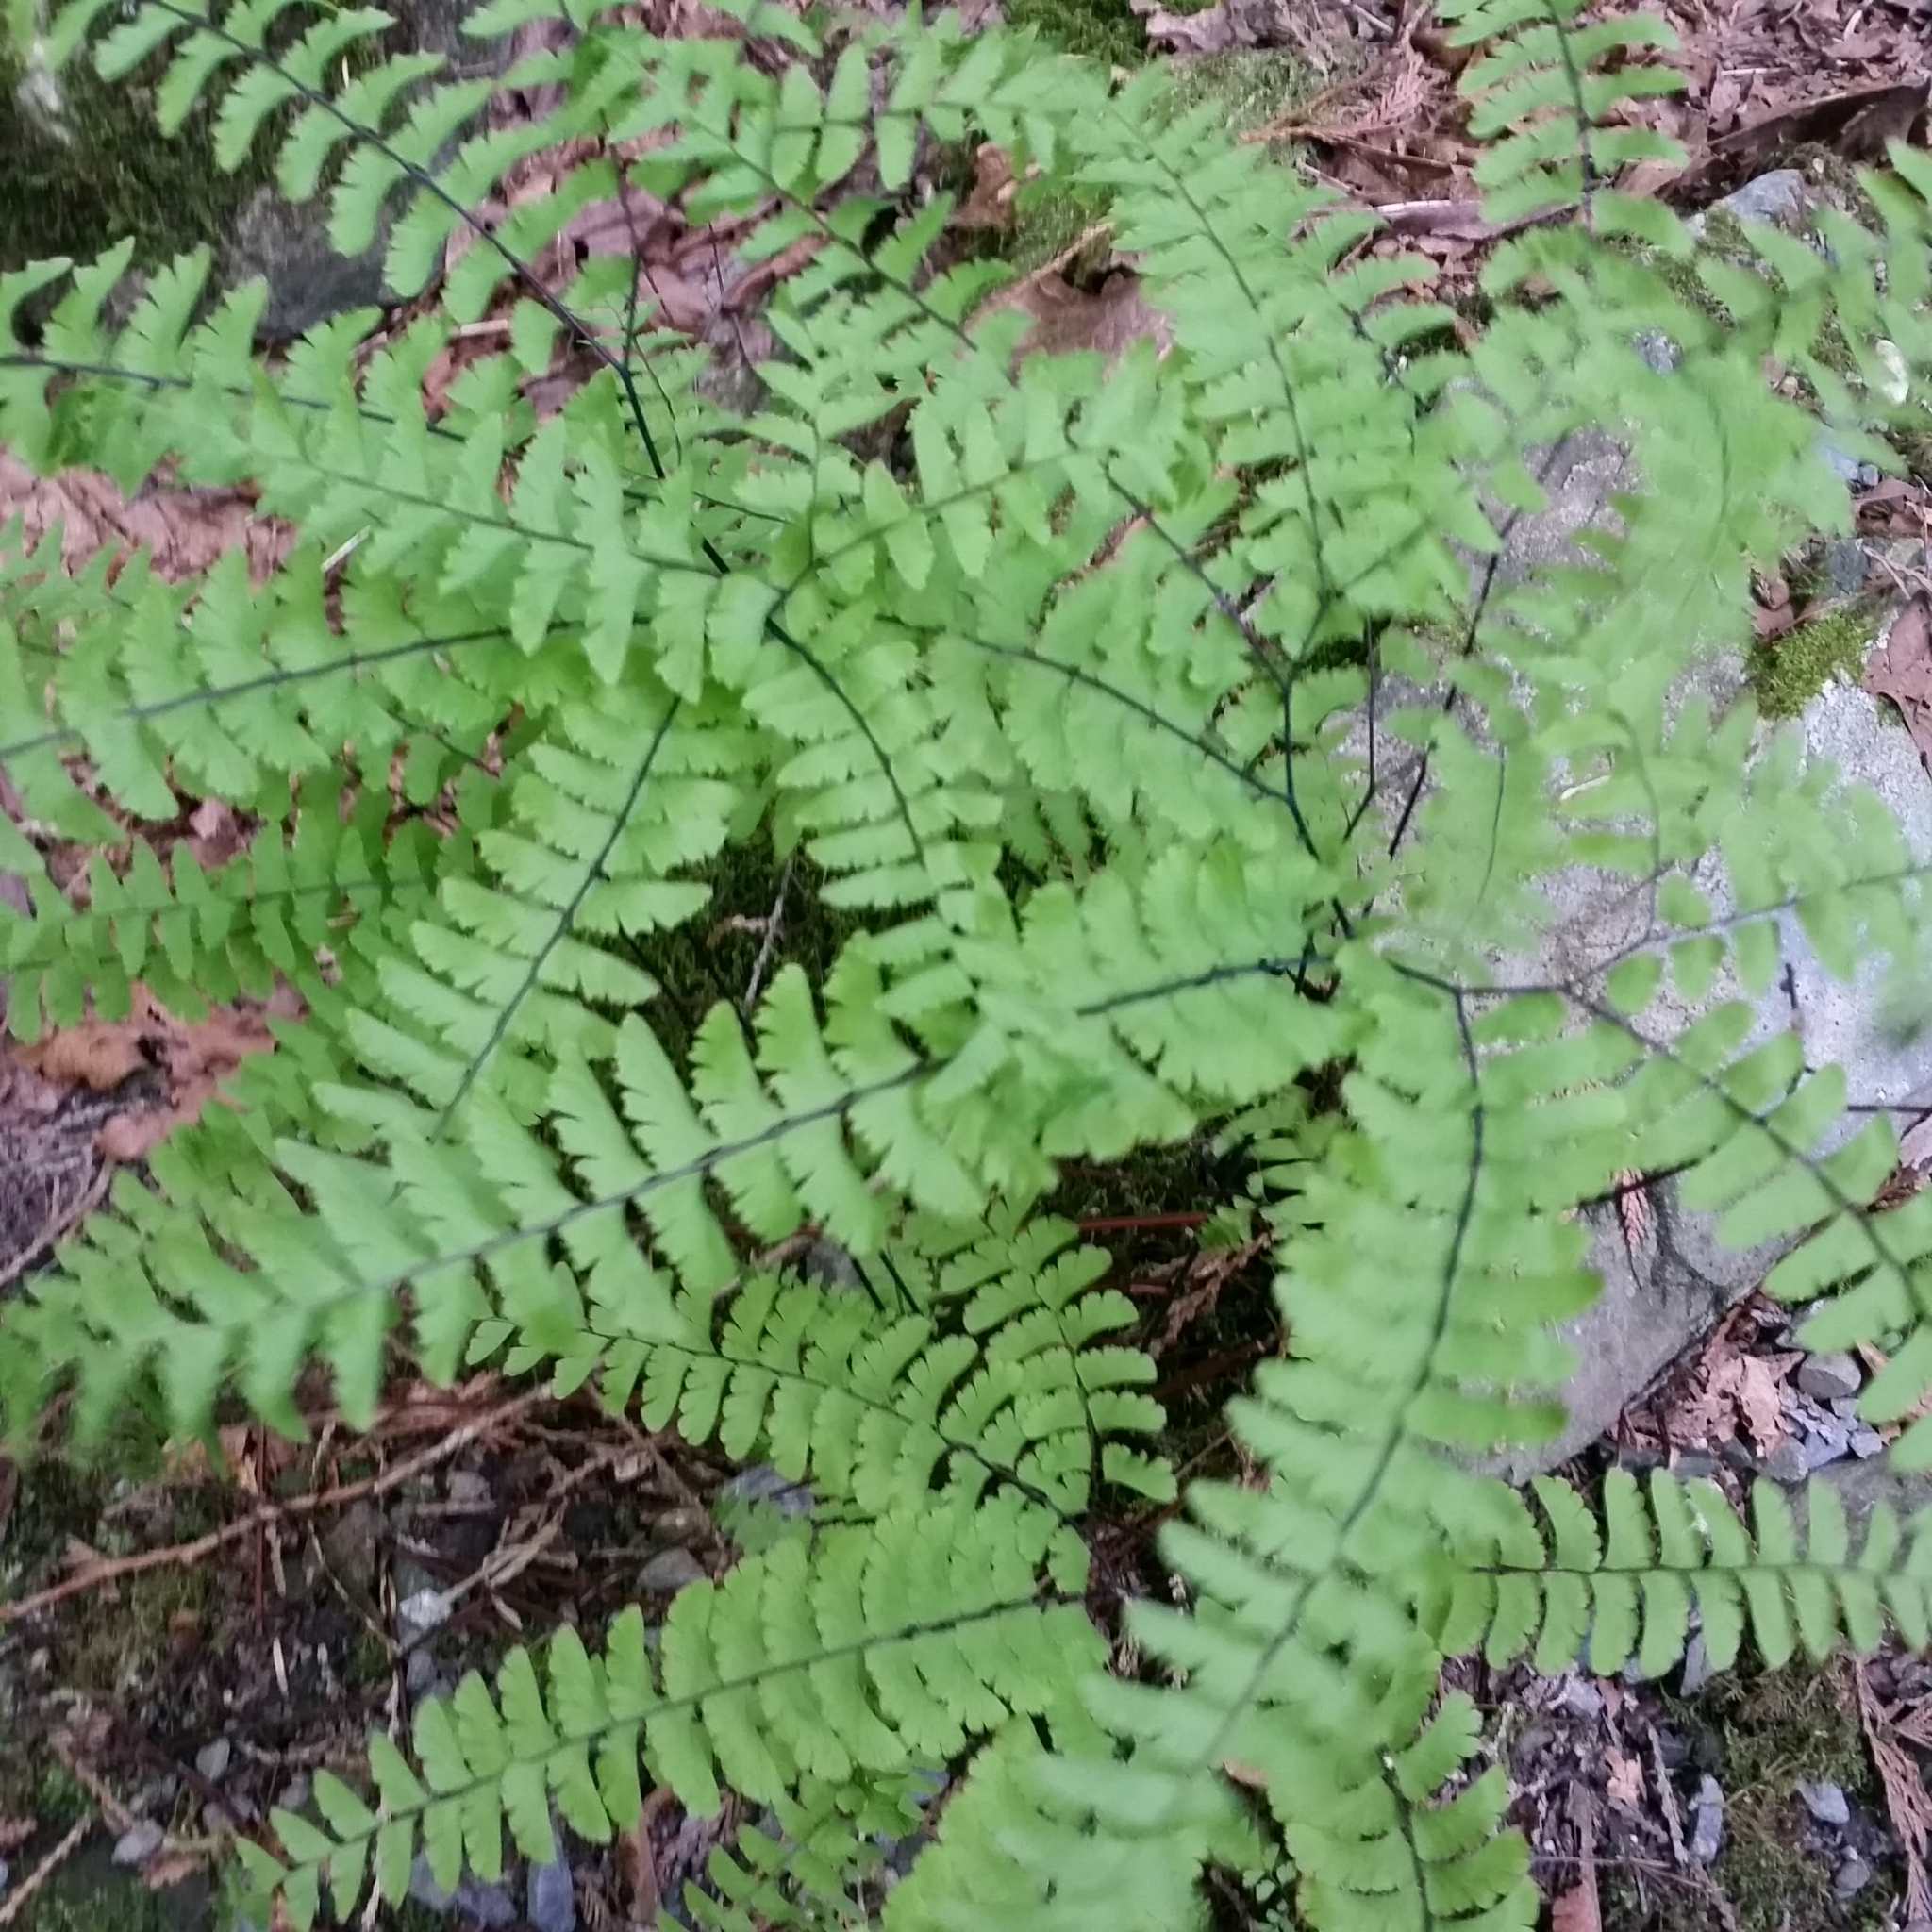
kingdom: Plantae
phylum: Tracheophyta
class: Polypodiopsida
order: Polypodiales
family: Pteridaceae
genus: Adiantum
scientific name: Adiantum aleuticum
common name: Aleutian maidenhair fern
